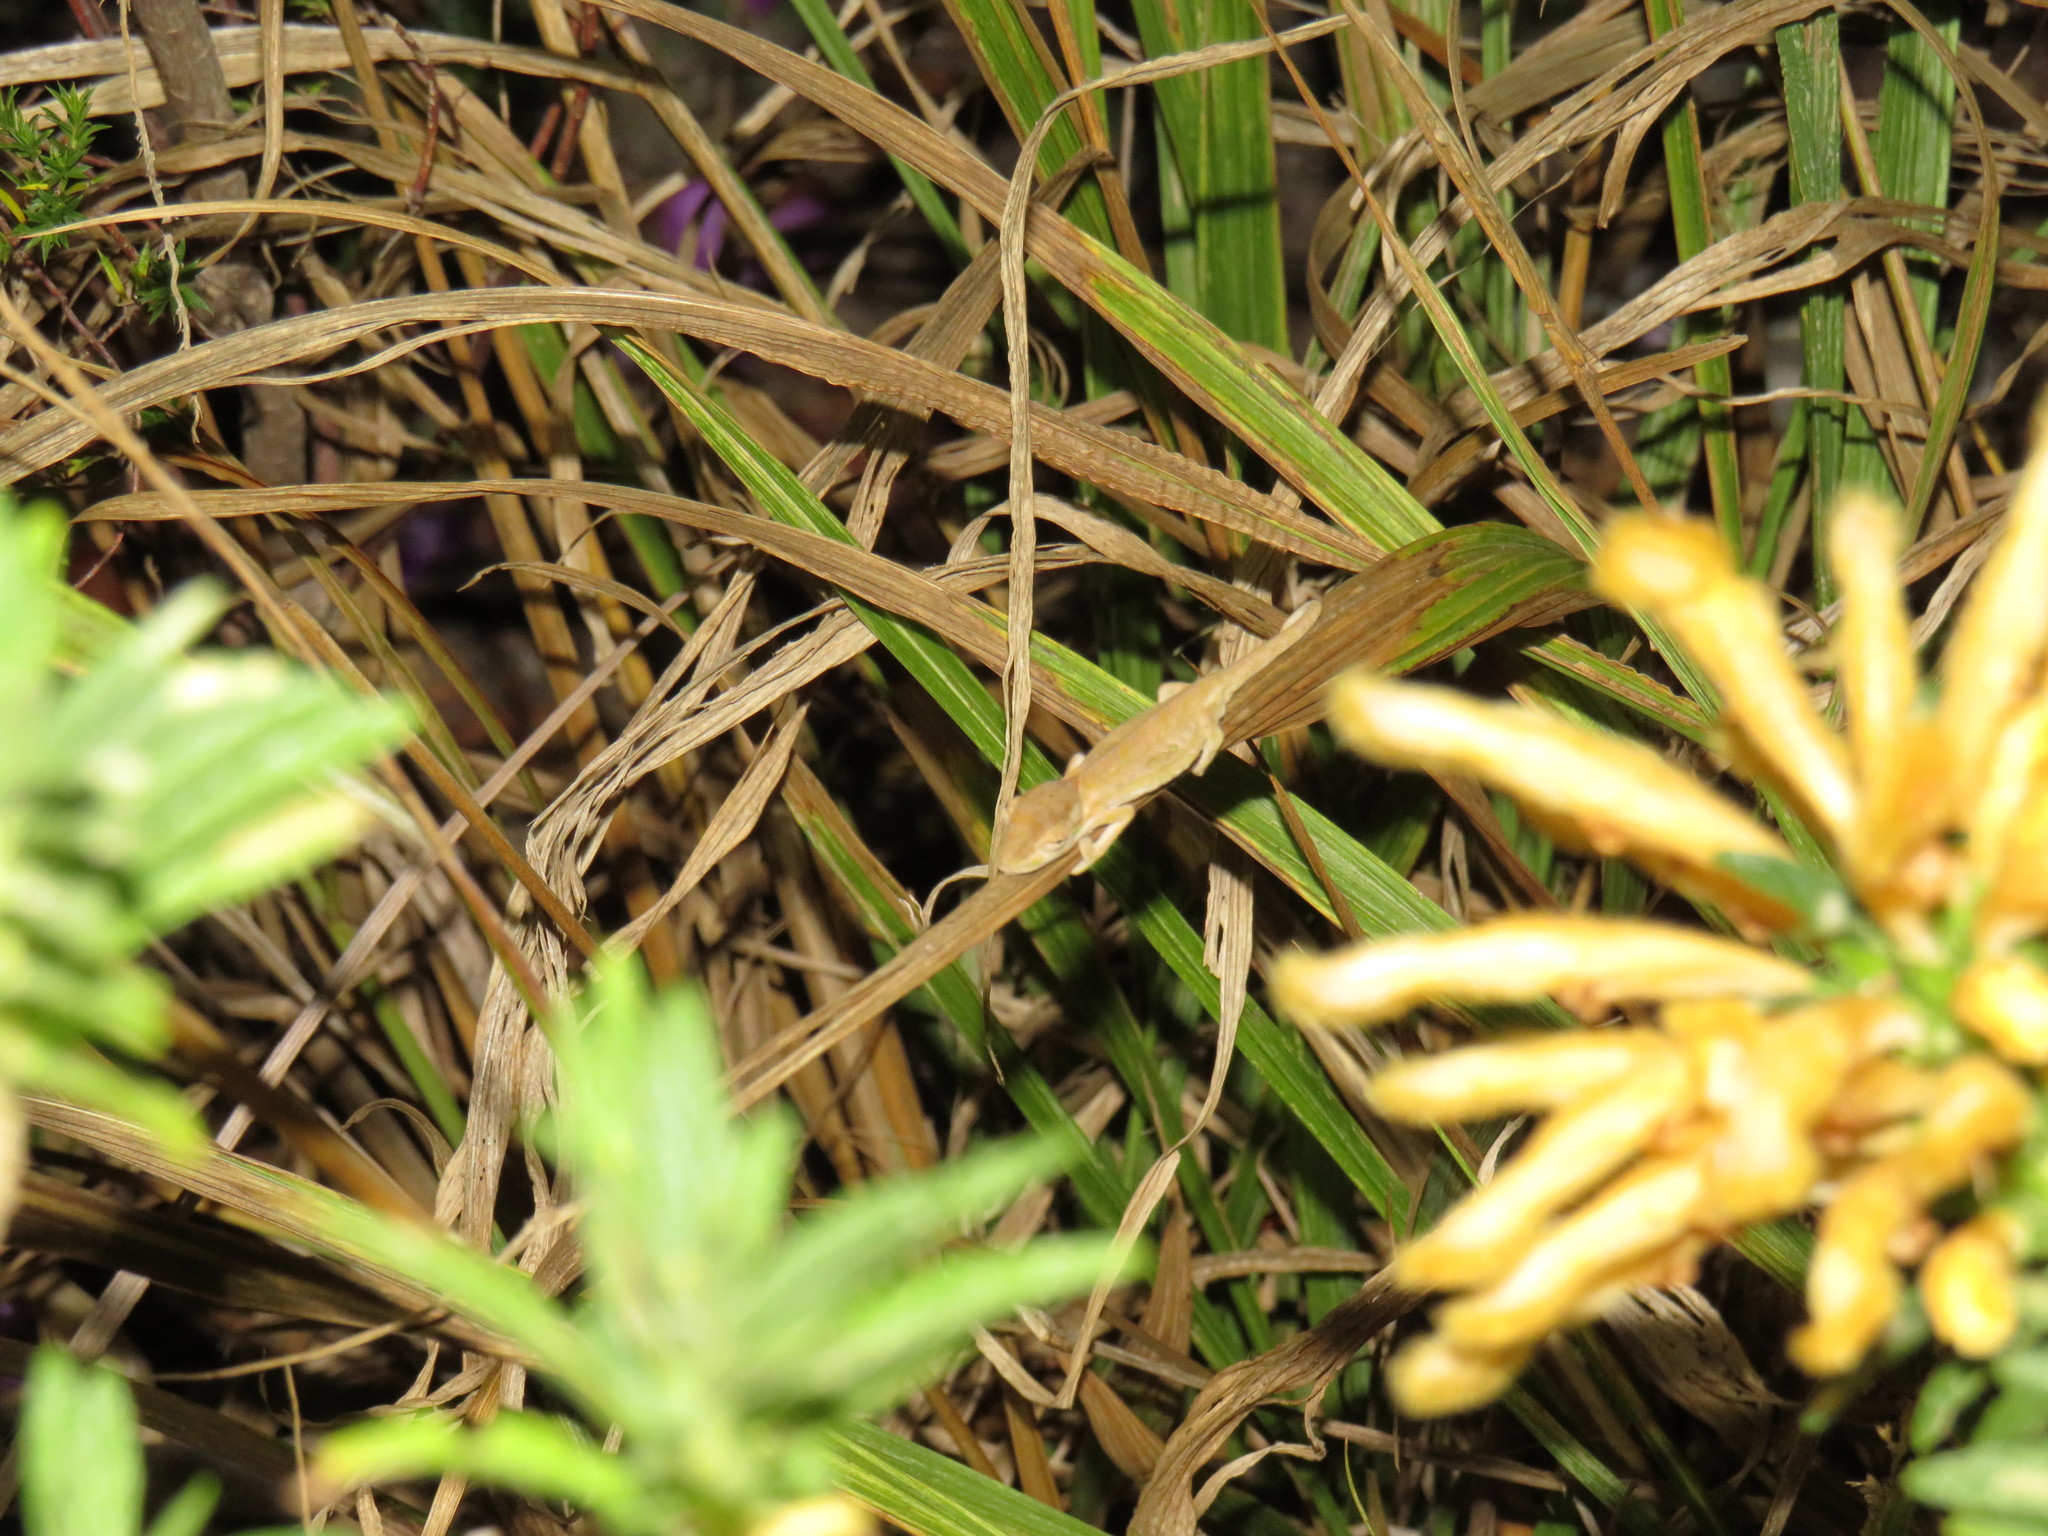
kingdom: Animalia
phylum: Chordata
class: Squamata
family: Chamaeleonidae
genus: Bradypodion
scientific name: Bradypodion pumilum
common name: Cape dwarf chameleon
